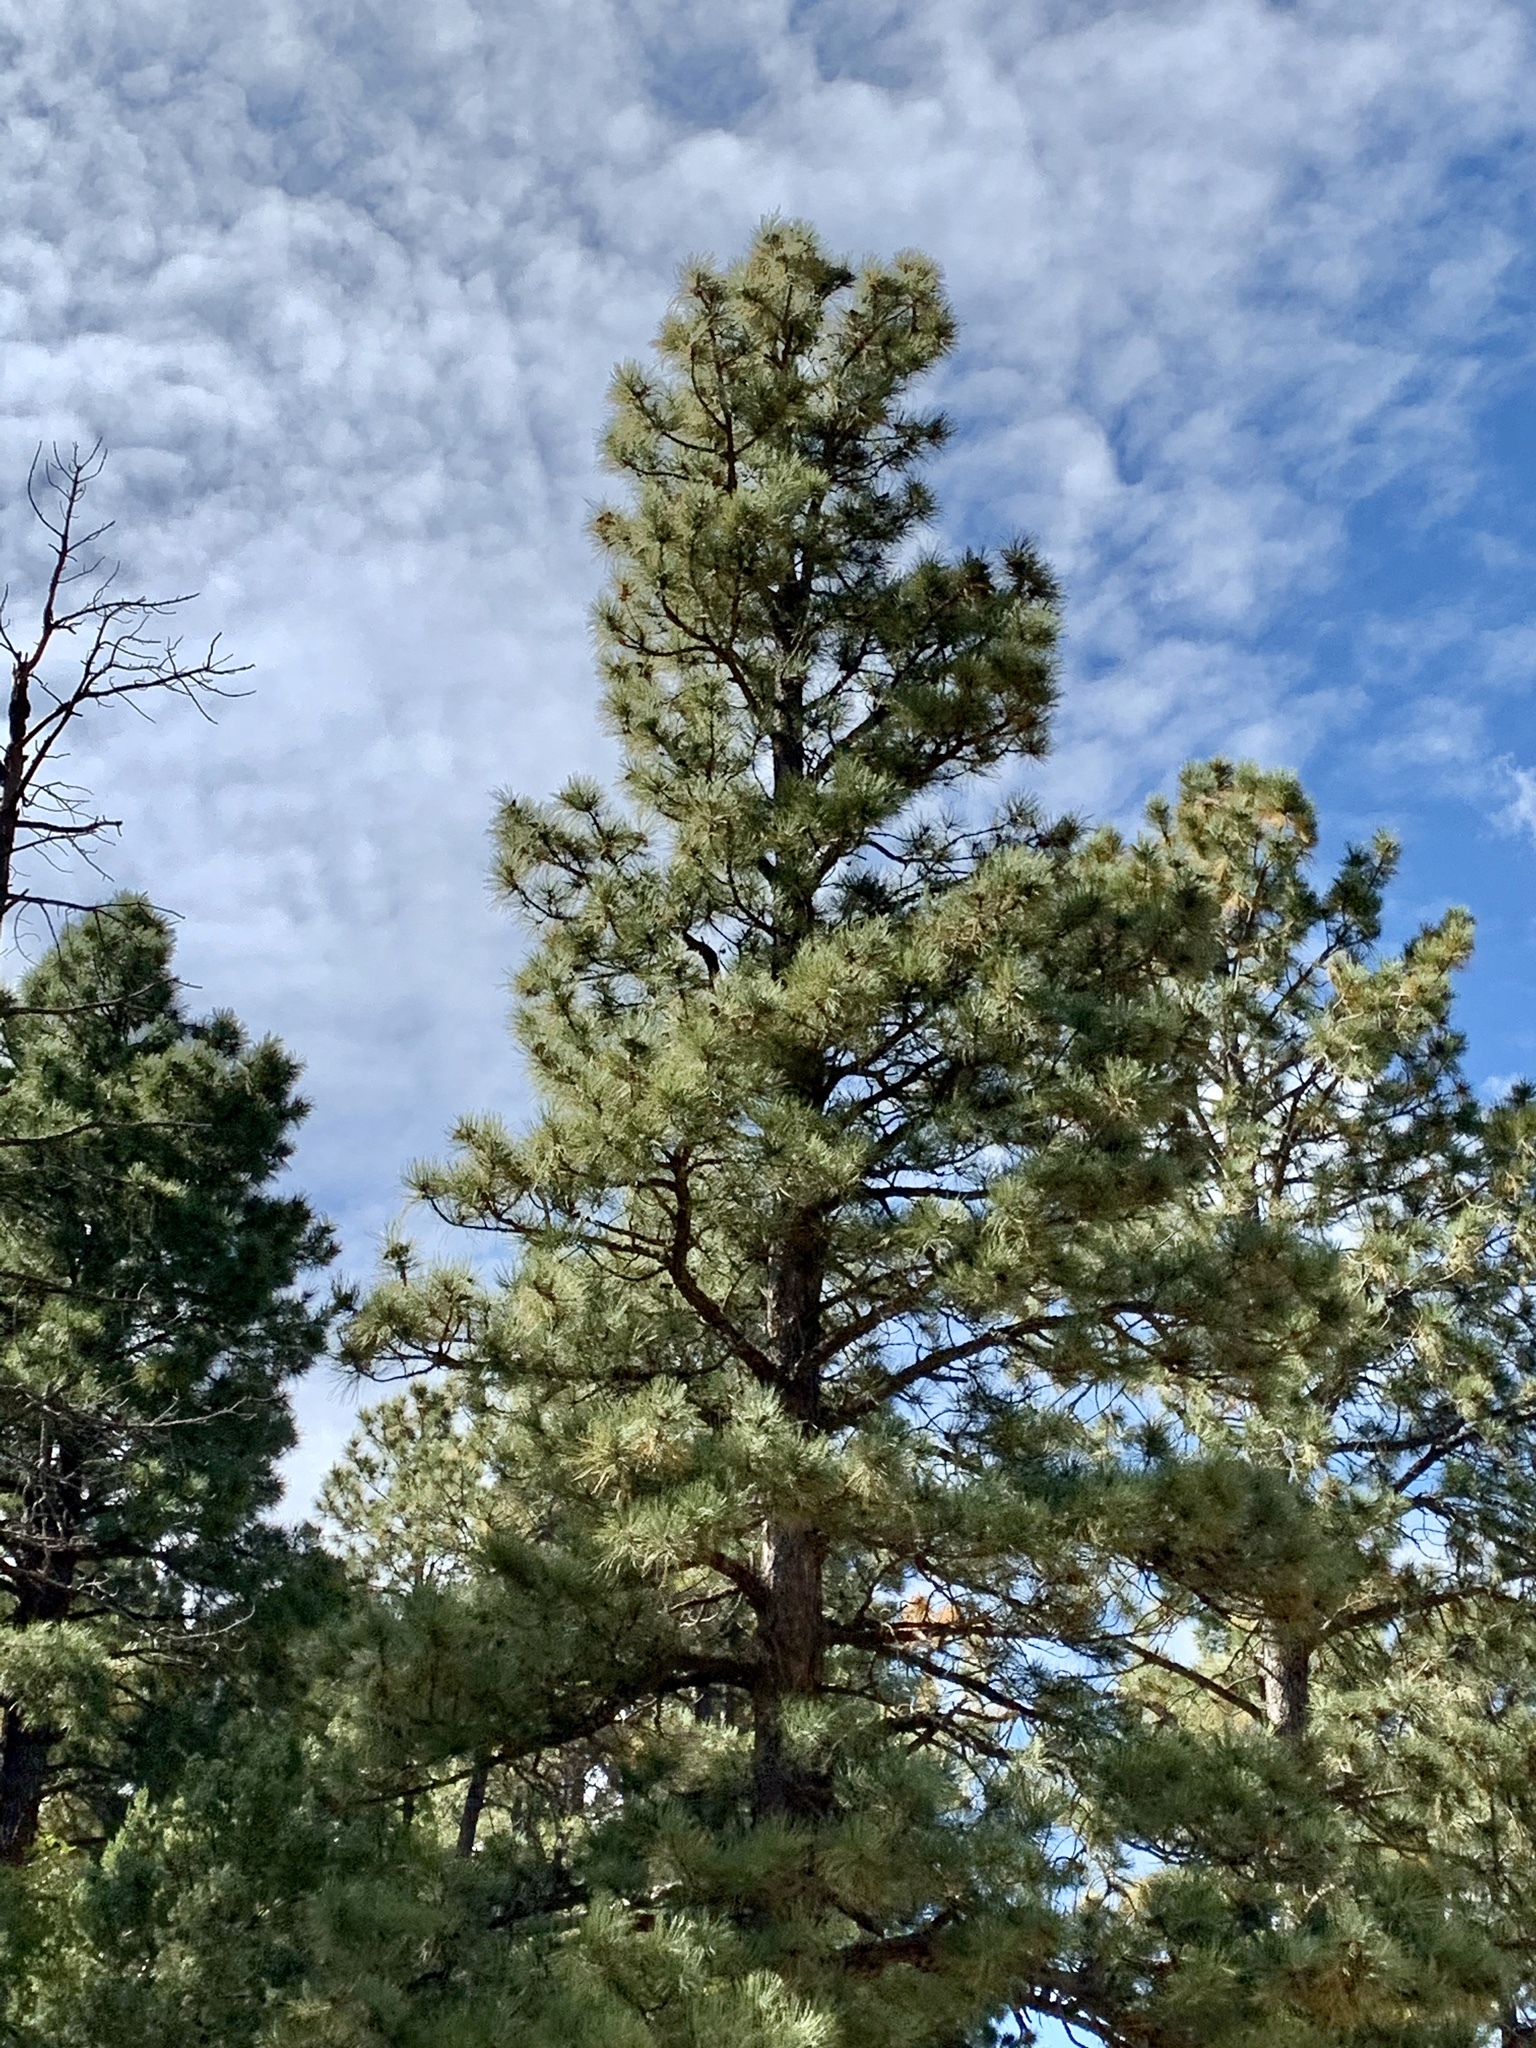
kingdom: Plantae
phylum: Tracheophyta
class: Pinopsida
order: Pinales
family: Pinaceae
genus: Pinus
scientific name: Pinus ponderosa
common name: Western yellow-pine
